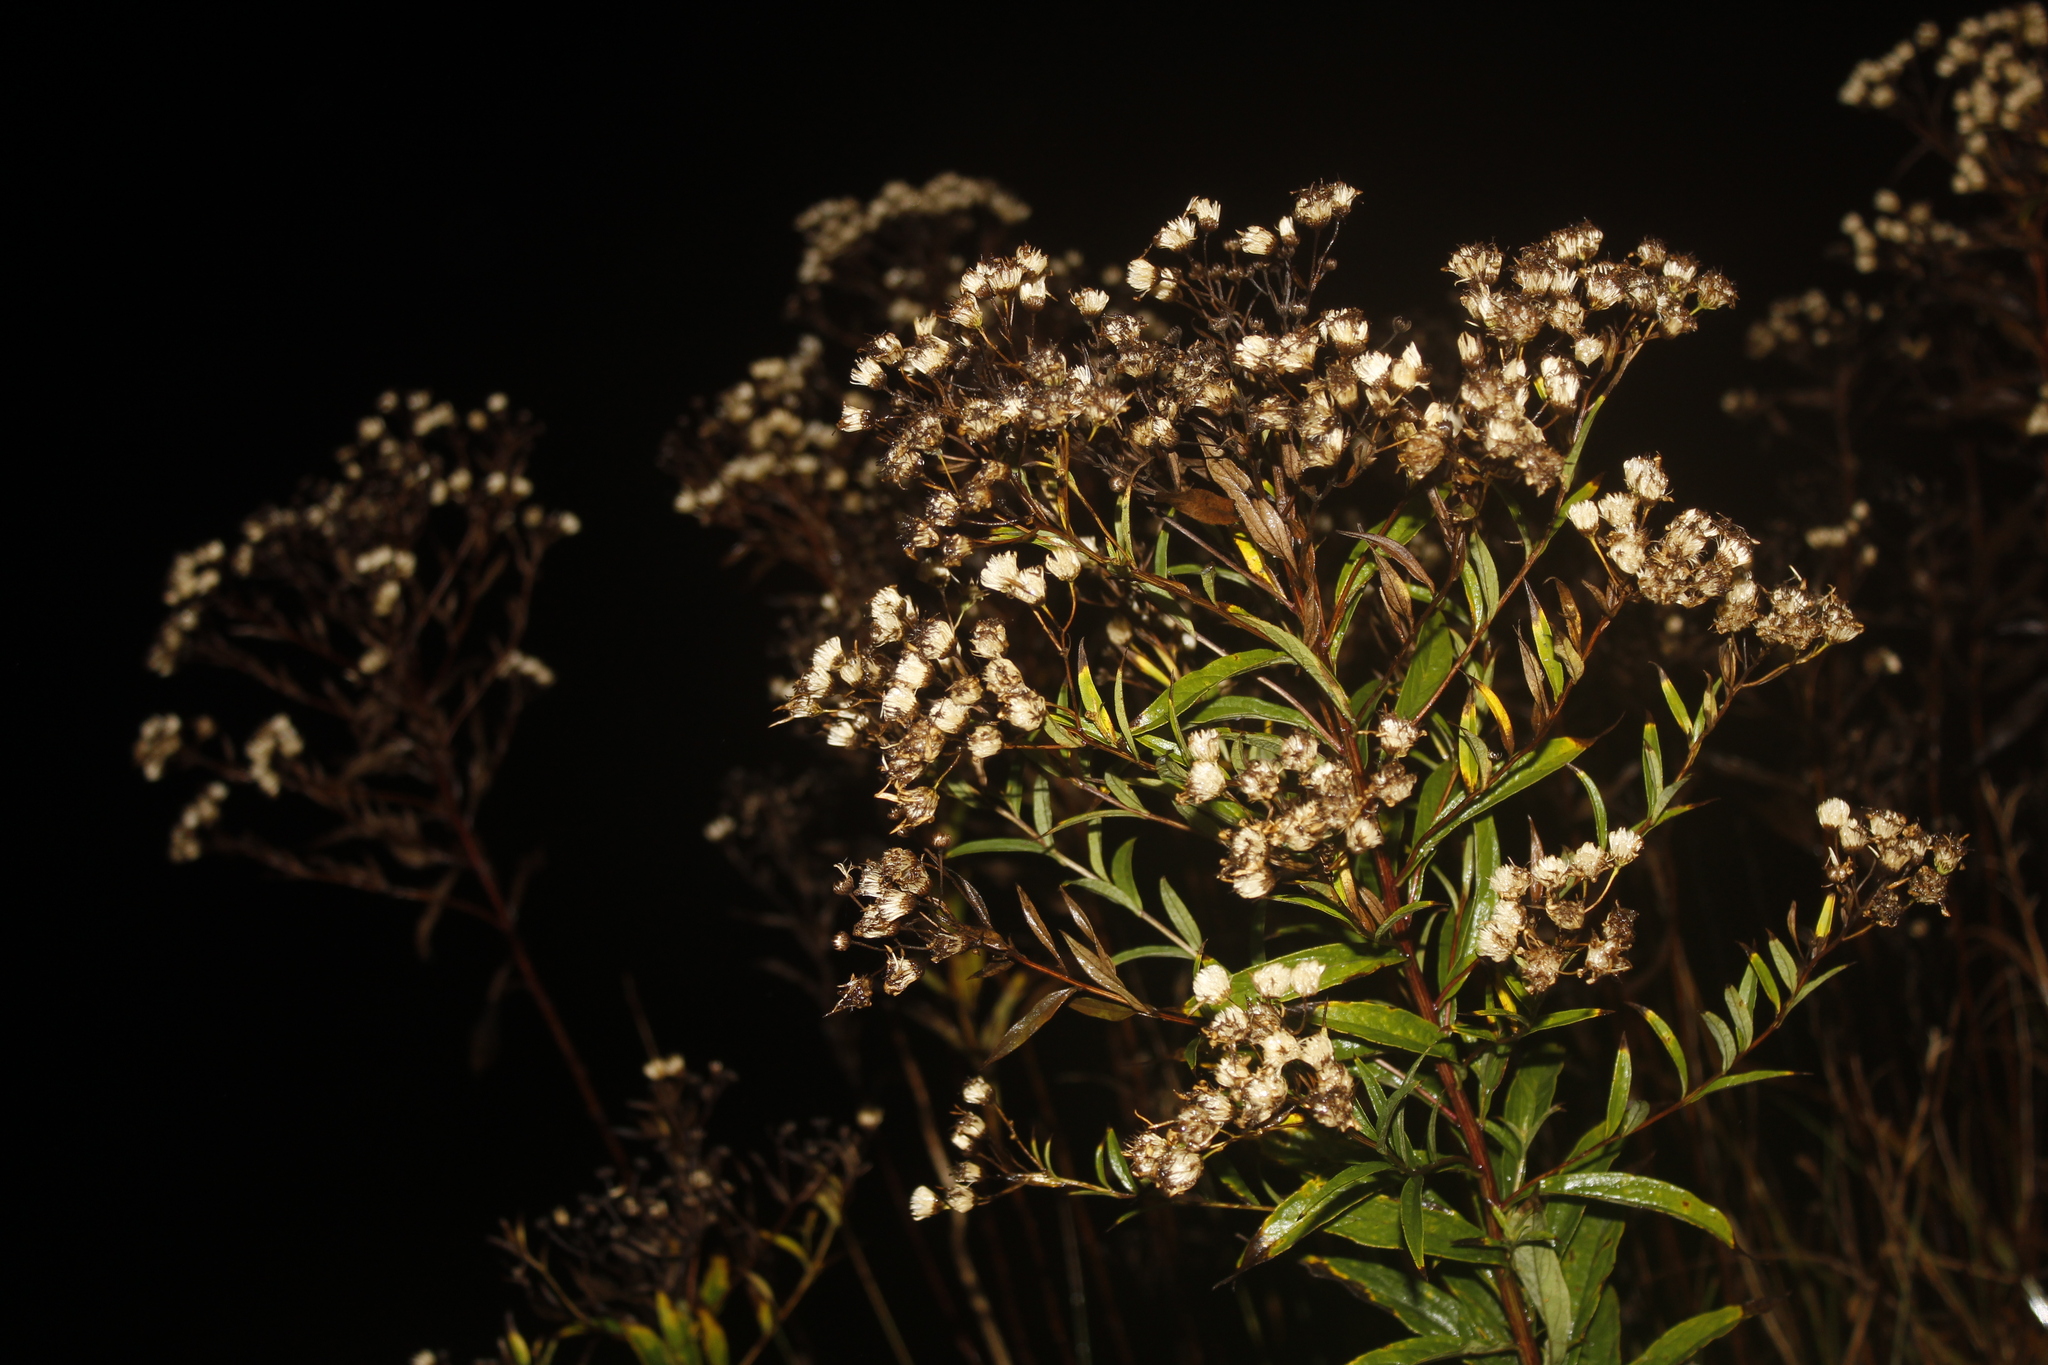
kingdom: Plantae
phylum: Tracheophyta
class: Magnoliopsida
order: Asterales
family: Asteraceae
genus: Doellingeria
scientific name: Doellingeria umbellata
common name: Flat-top white aster
